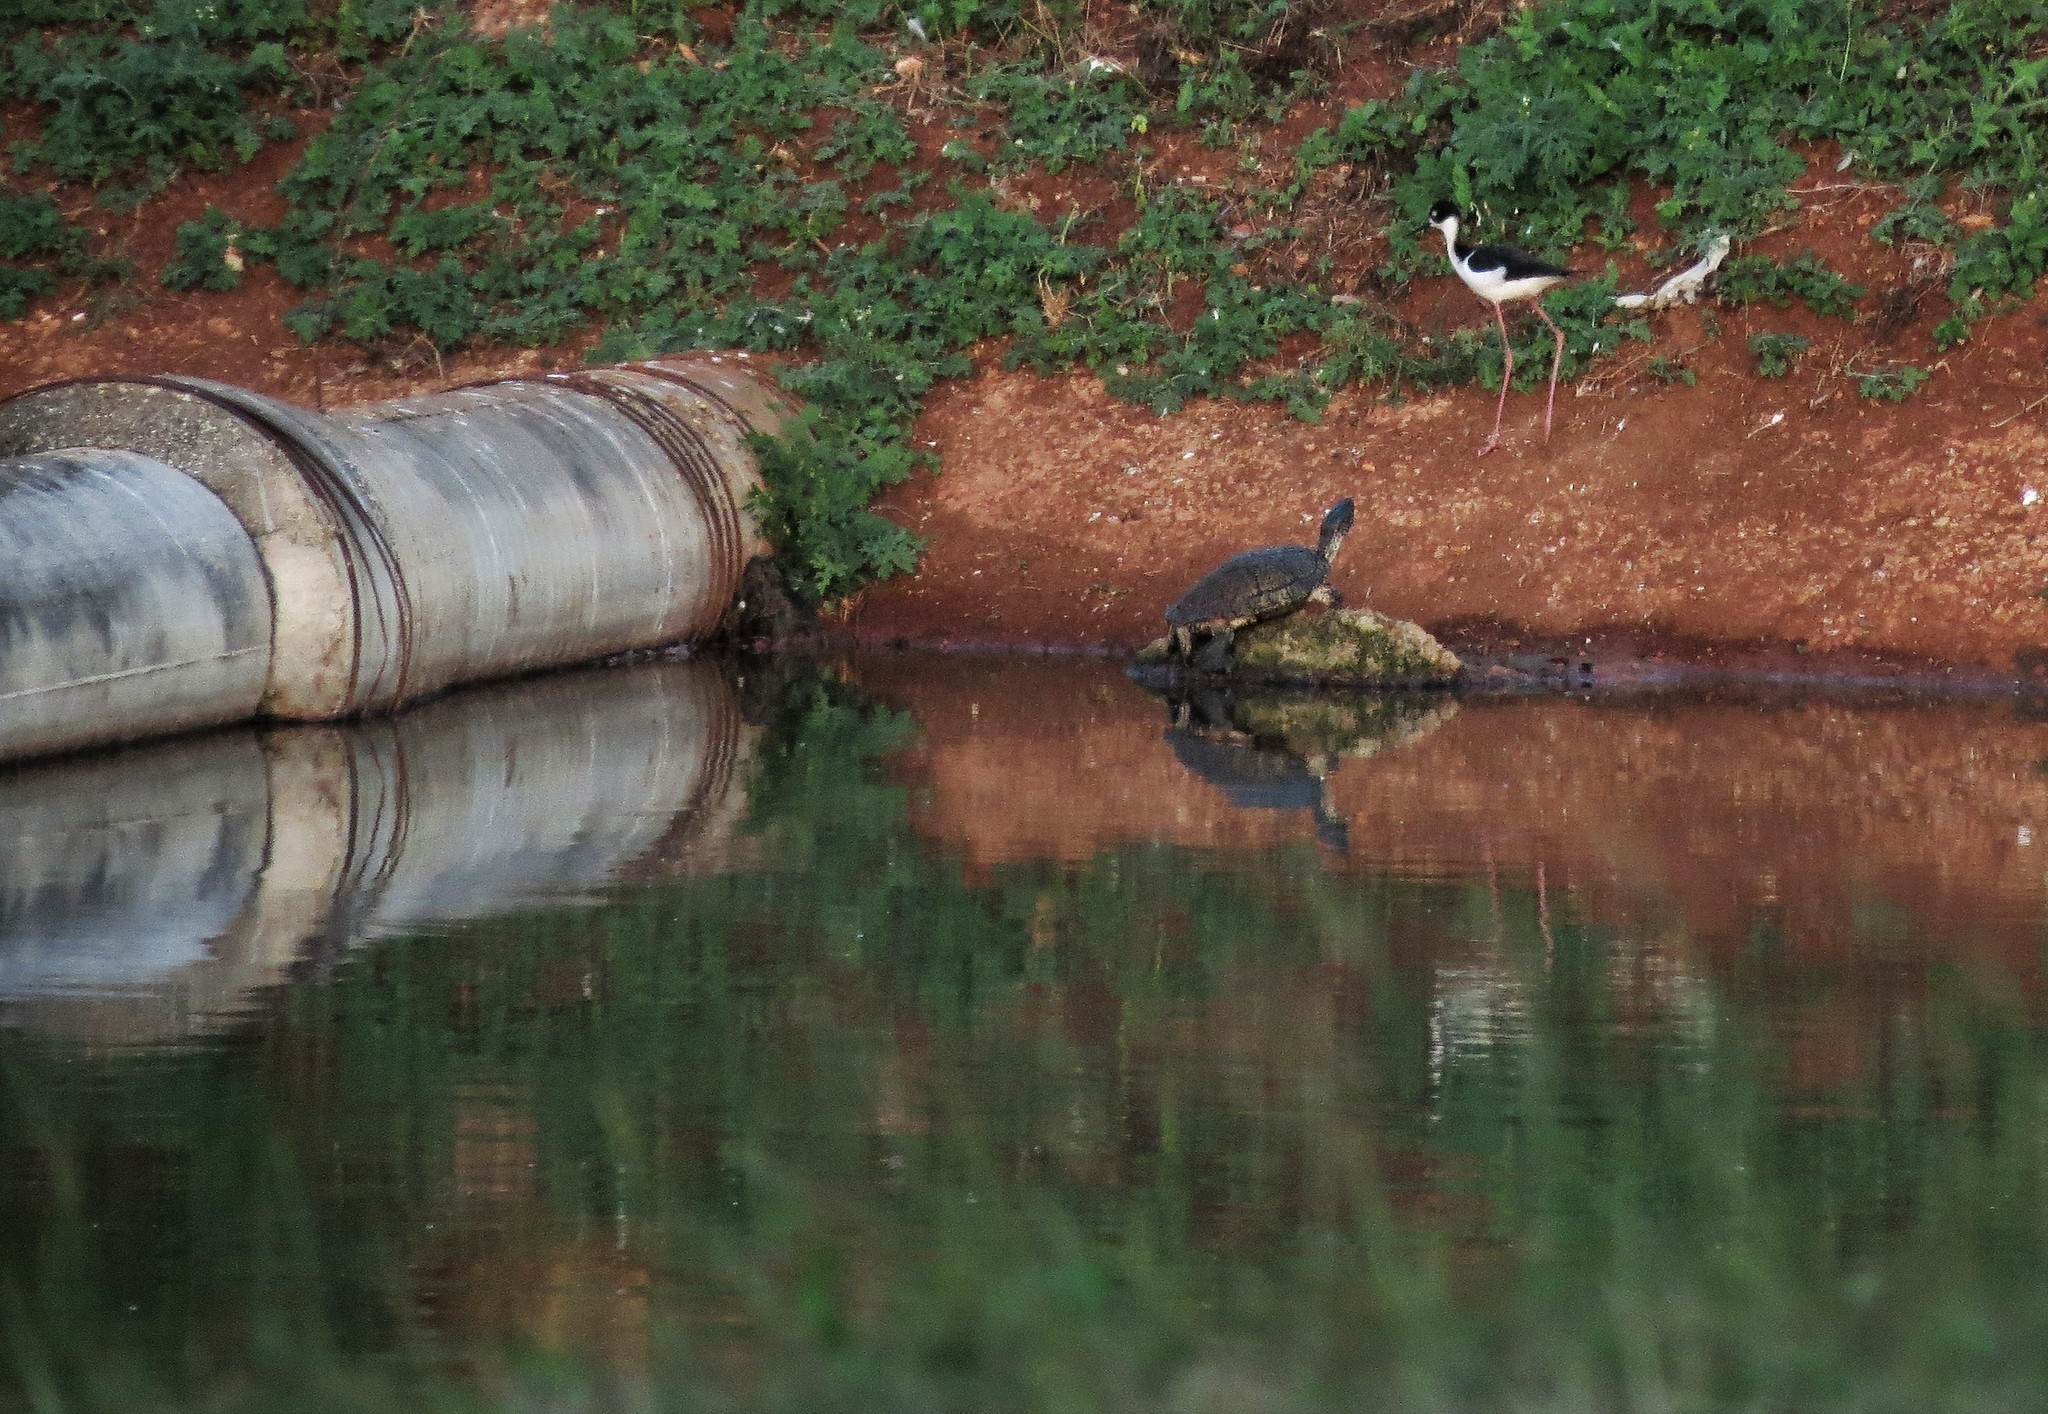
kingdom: Animalia
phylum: Chordata
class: Testudines
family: Emydidae
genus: Trachemys
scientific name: Trachemys decussata
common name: North antillean slider
